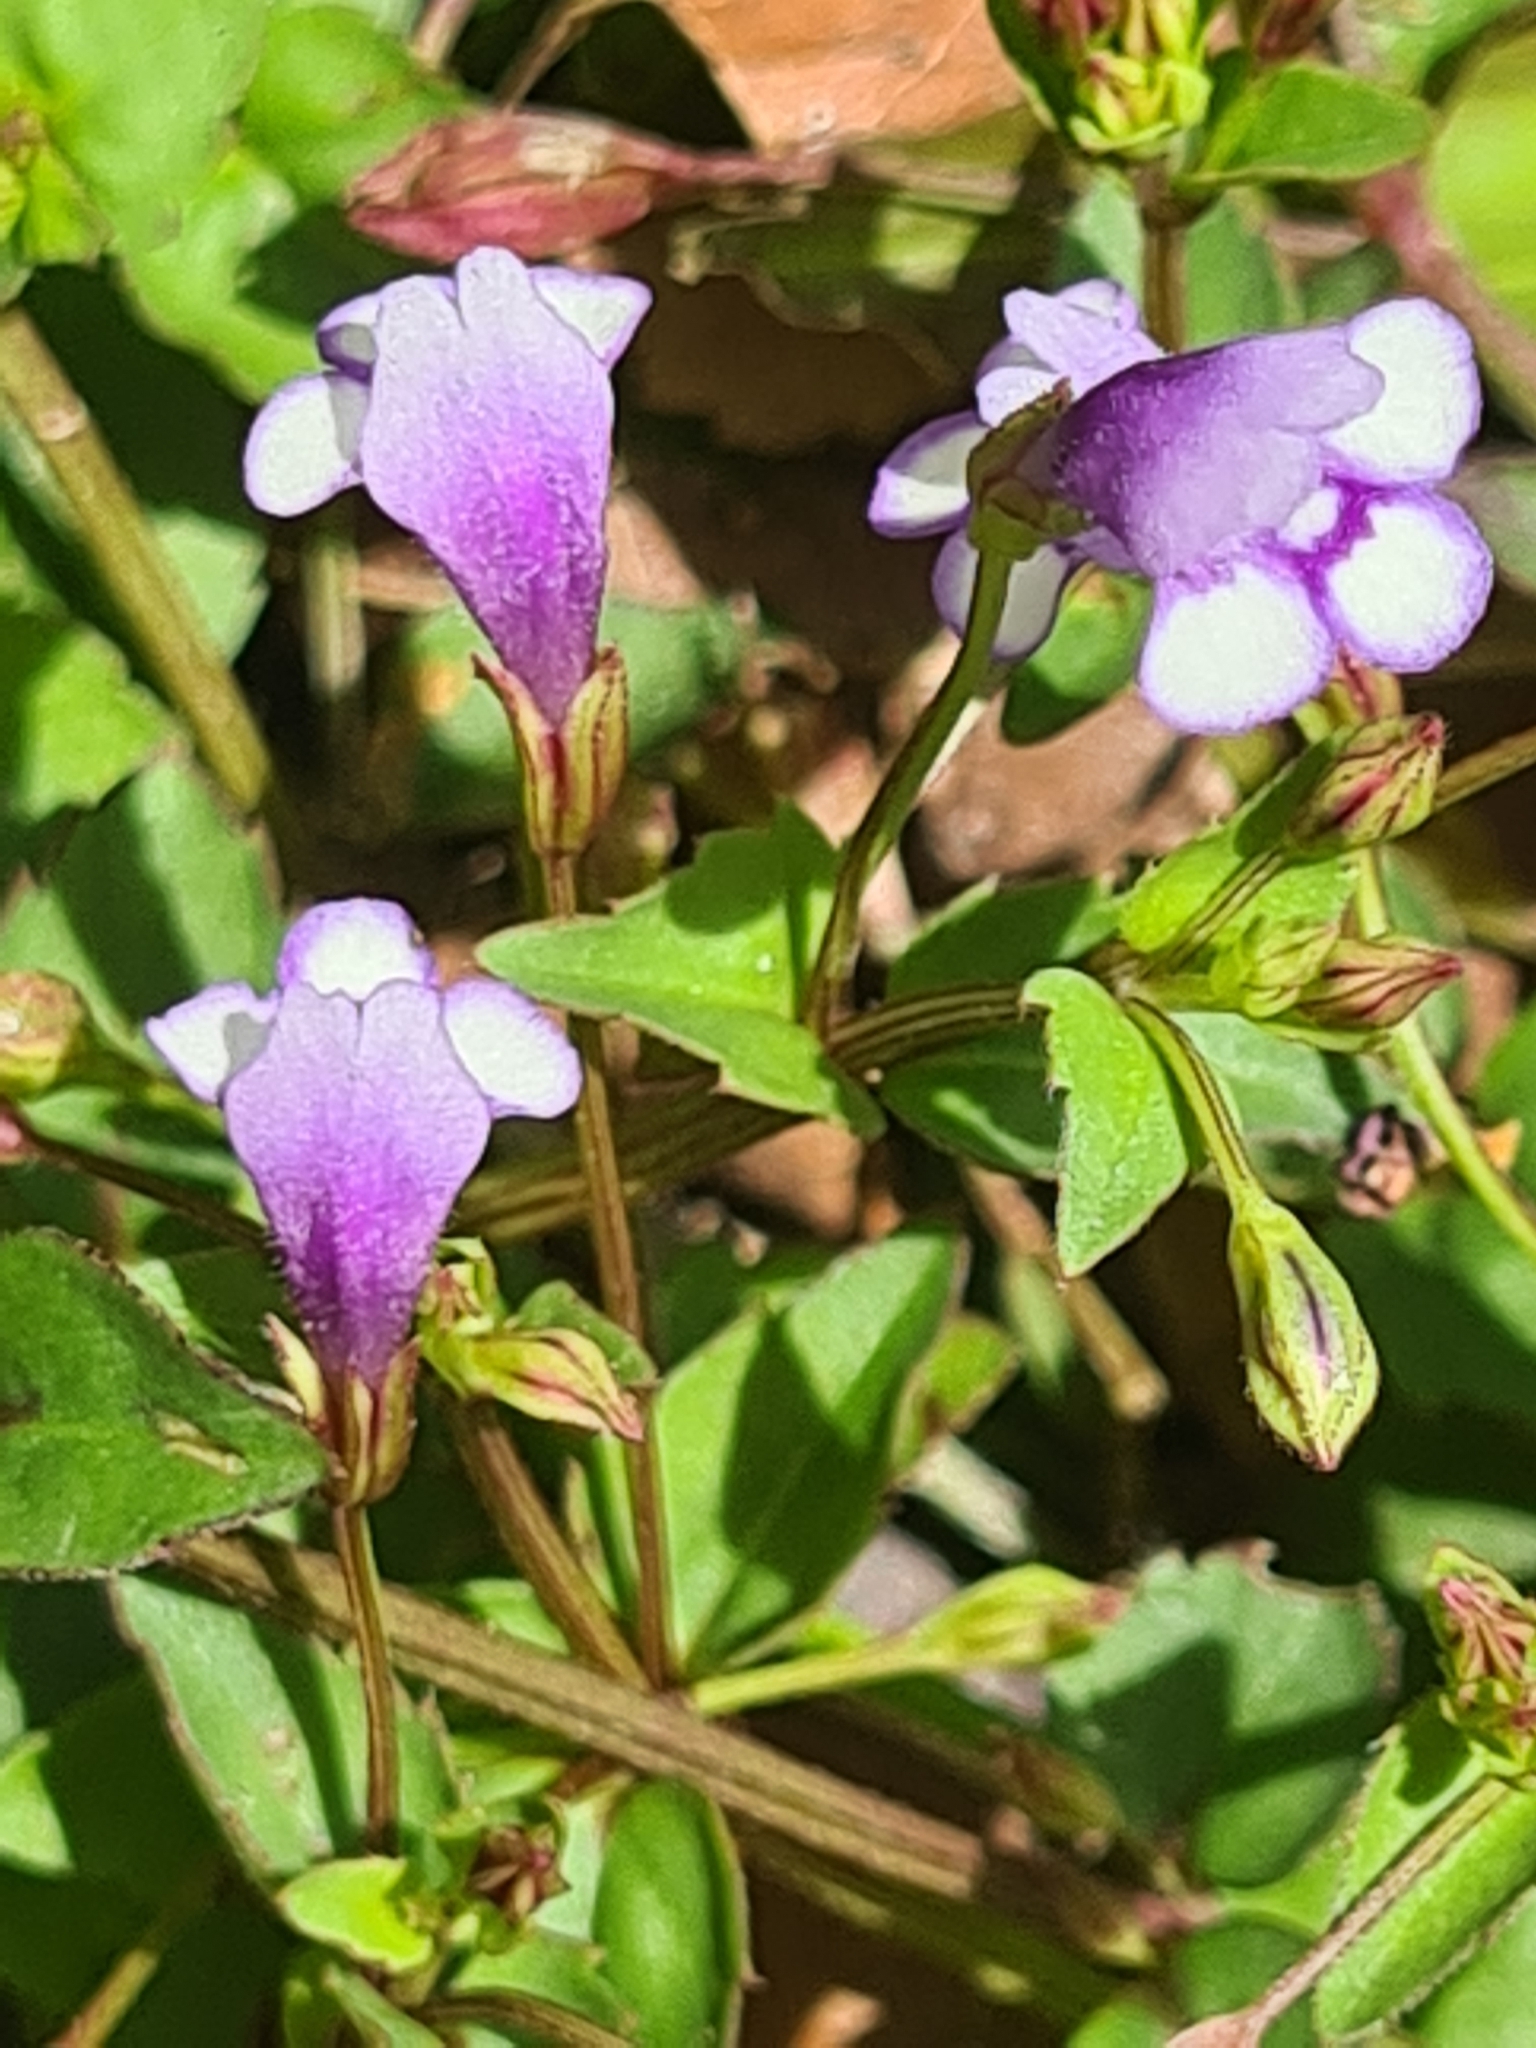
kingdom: Plantae
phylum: Tracheophyta
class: Magnoliopsida
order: Lamiales
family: Linderniaceae
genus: Torenia
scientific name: Torenia crustacea
